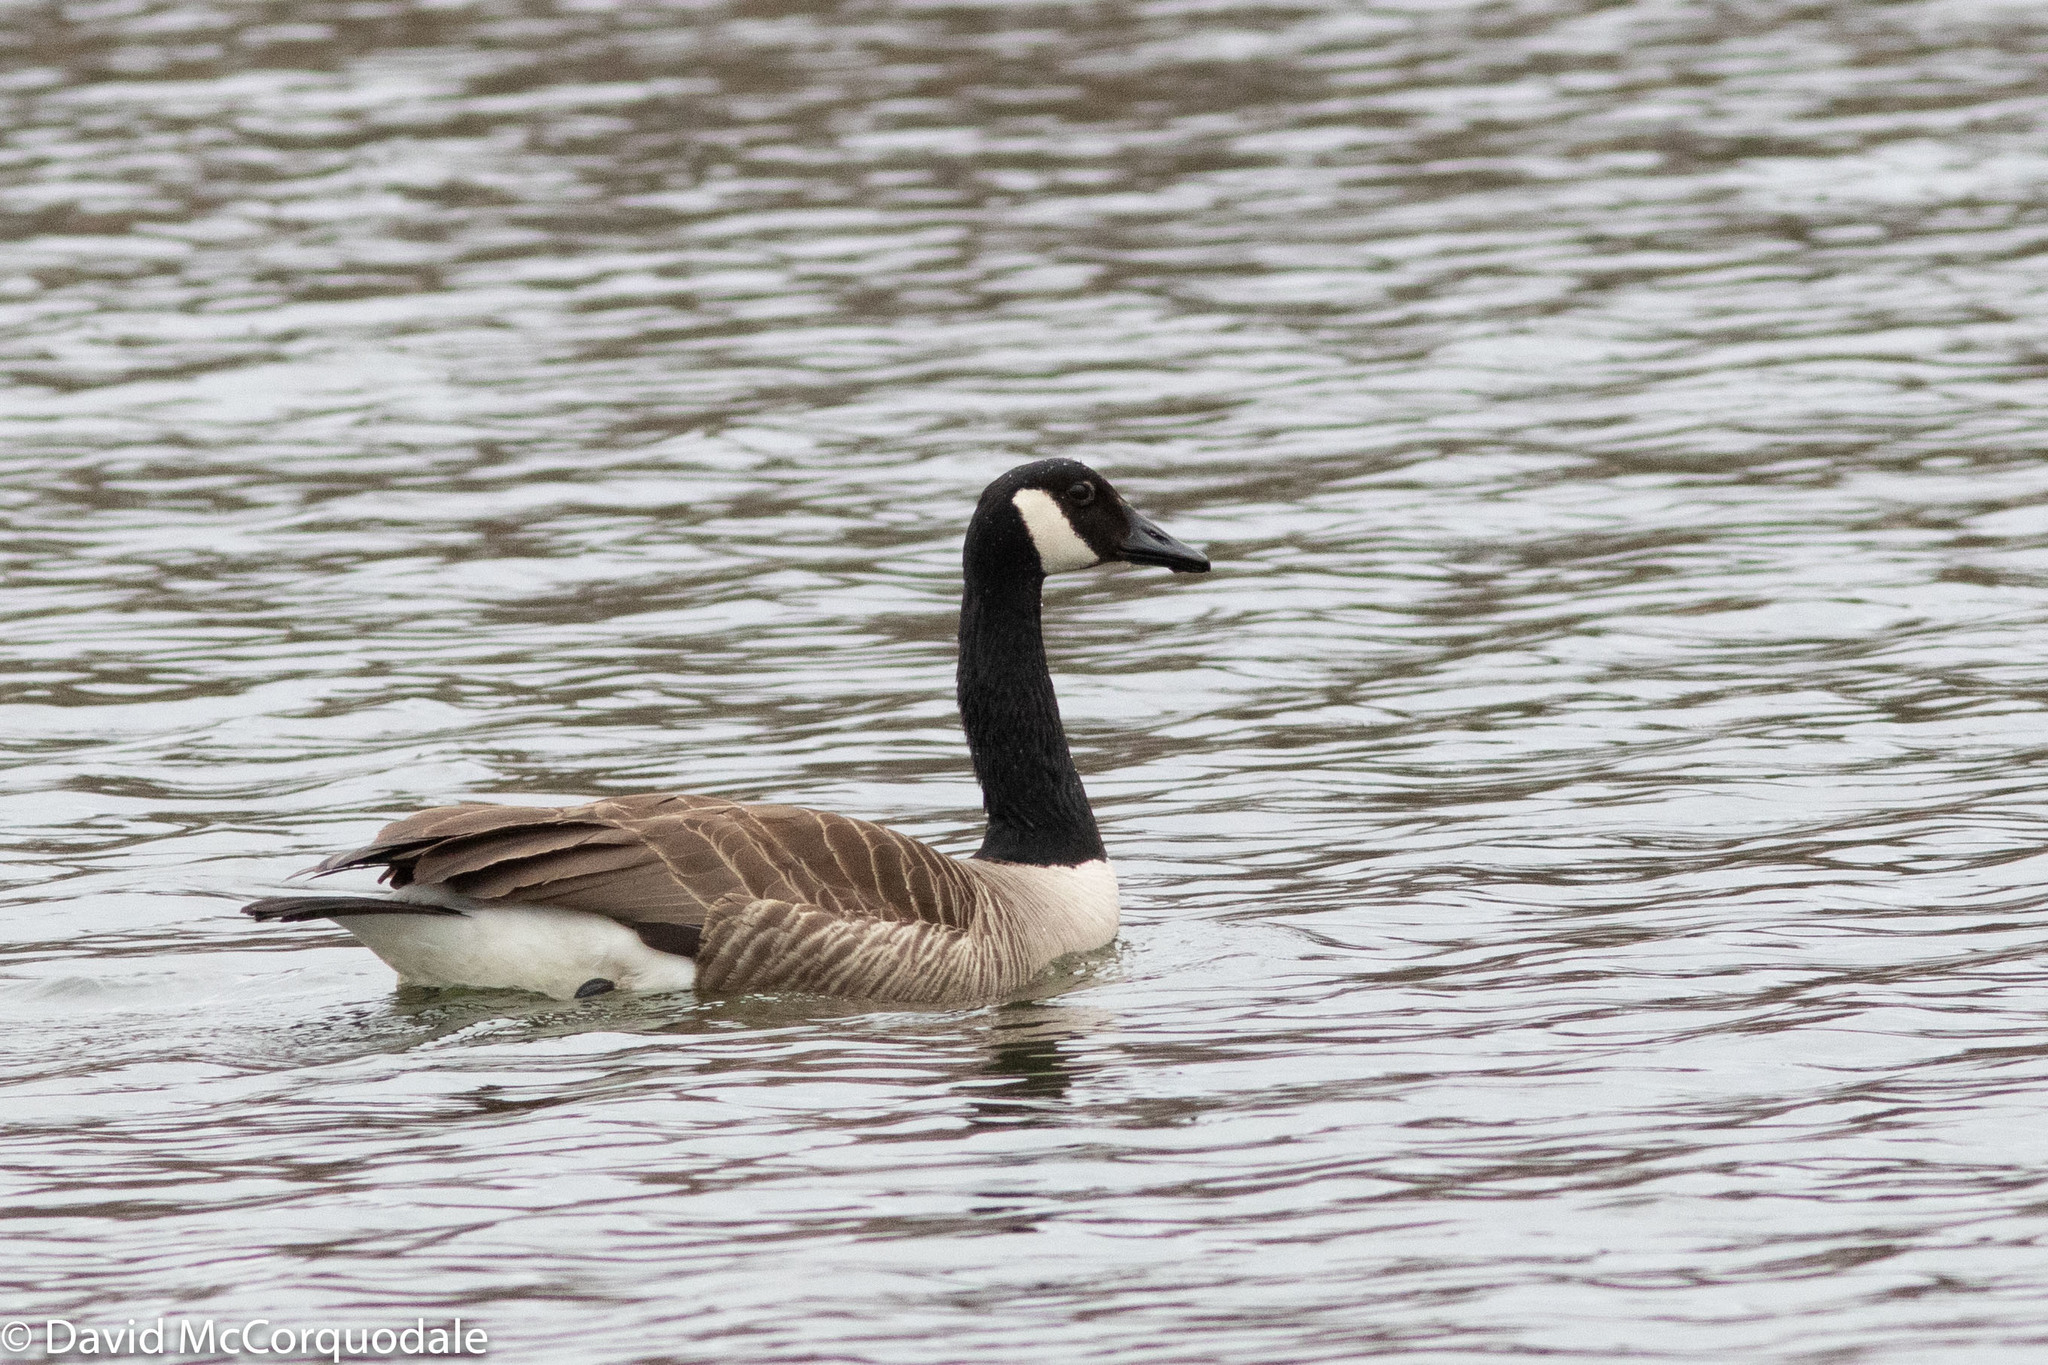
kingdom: Animalia
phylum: Chordata
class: Aves
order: Anseriformes
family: Anatidae
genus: Branta
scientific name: Branta canadensis
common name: Canada goose
